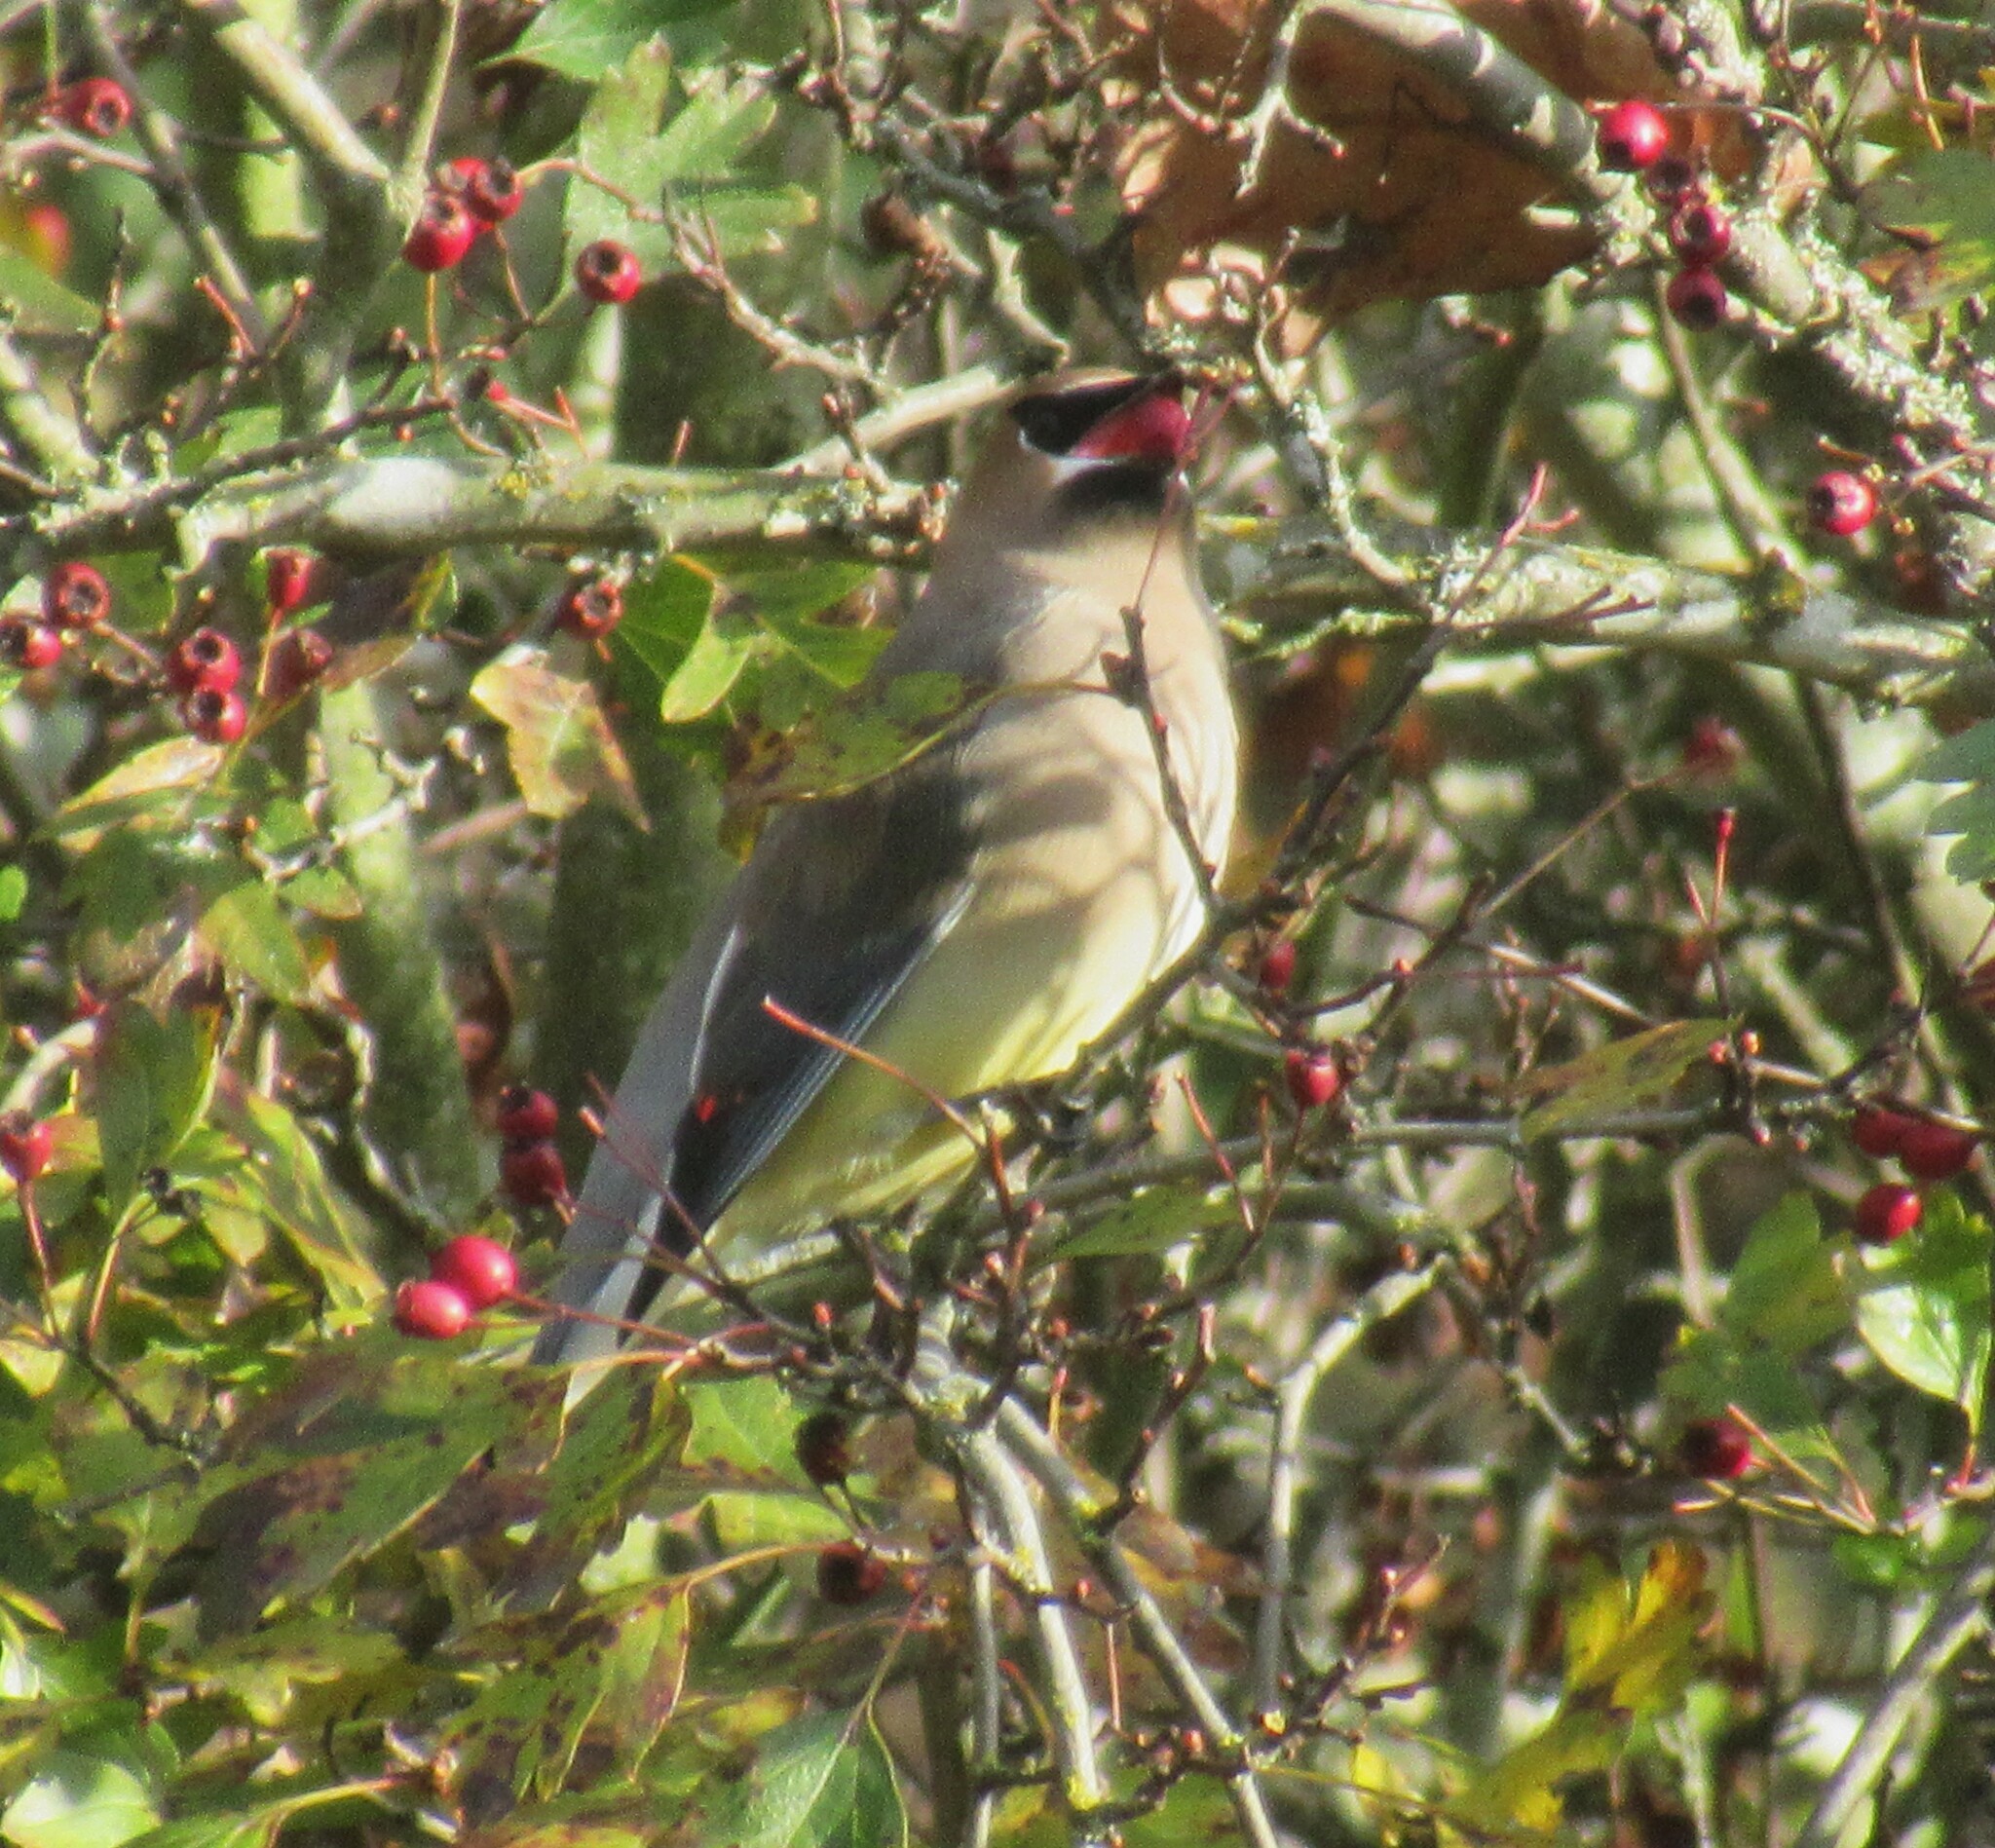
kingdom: Animalia
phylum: Chordata
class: Aves
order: Passeriformes
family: Bombycillidae
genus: Bombycilla
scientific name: Bombycilla cedrorum
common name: Cedar waxwing
